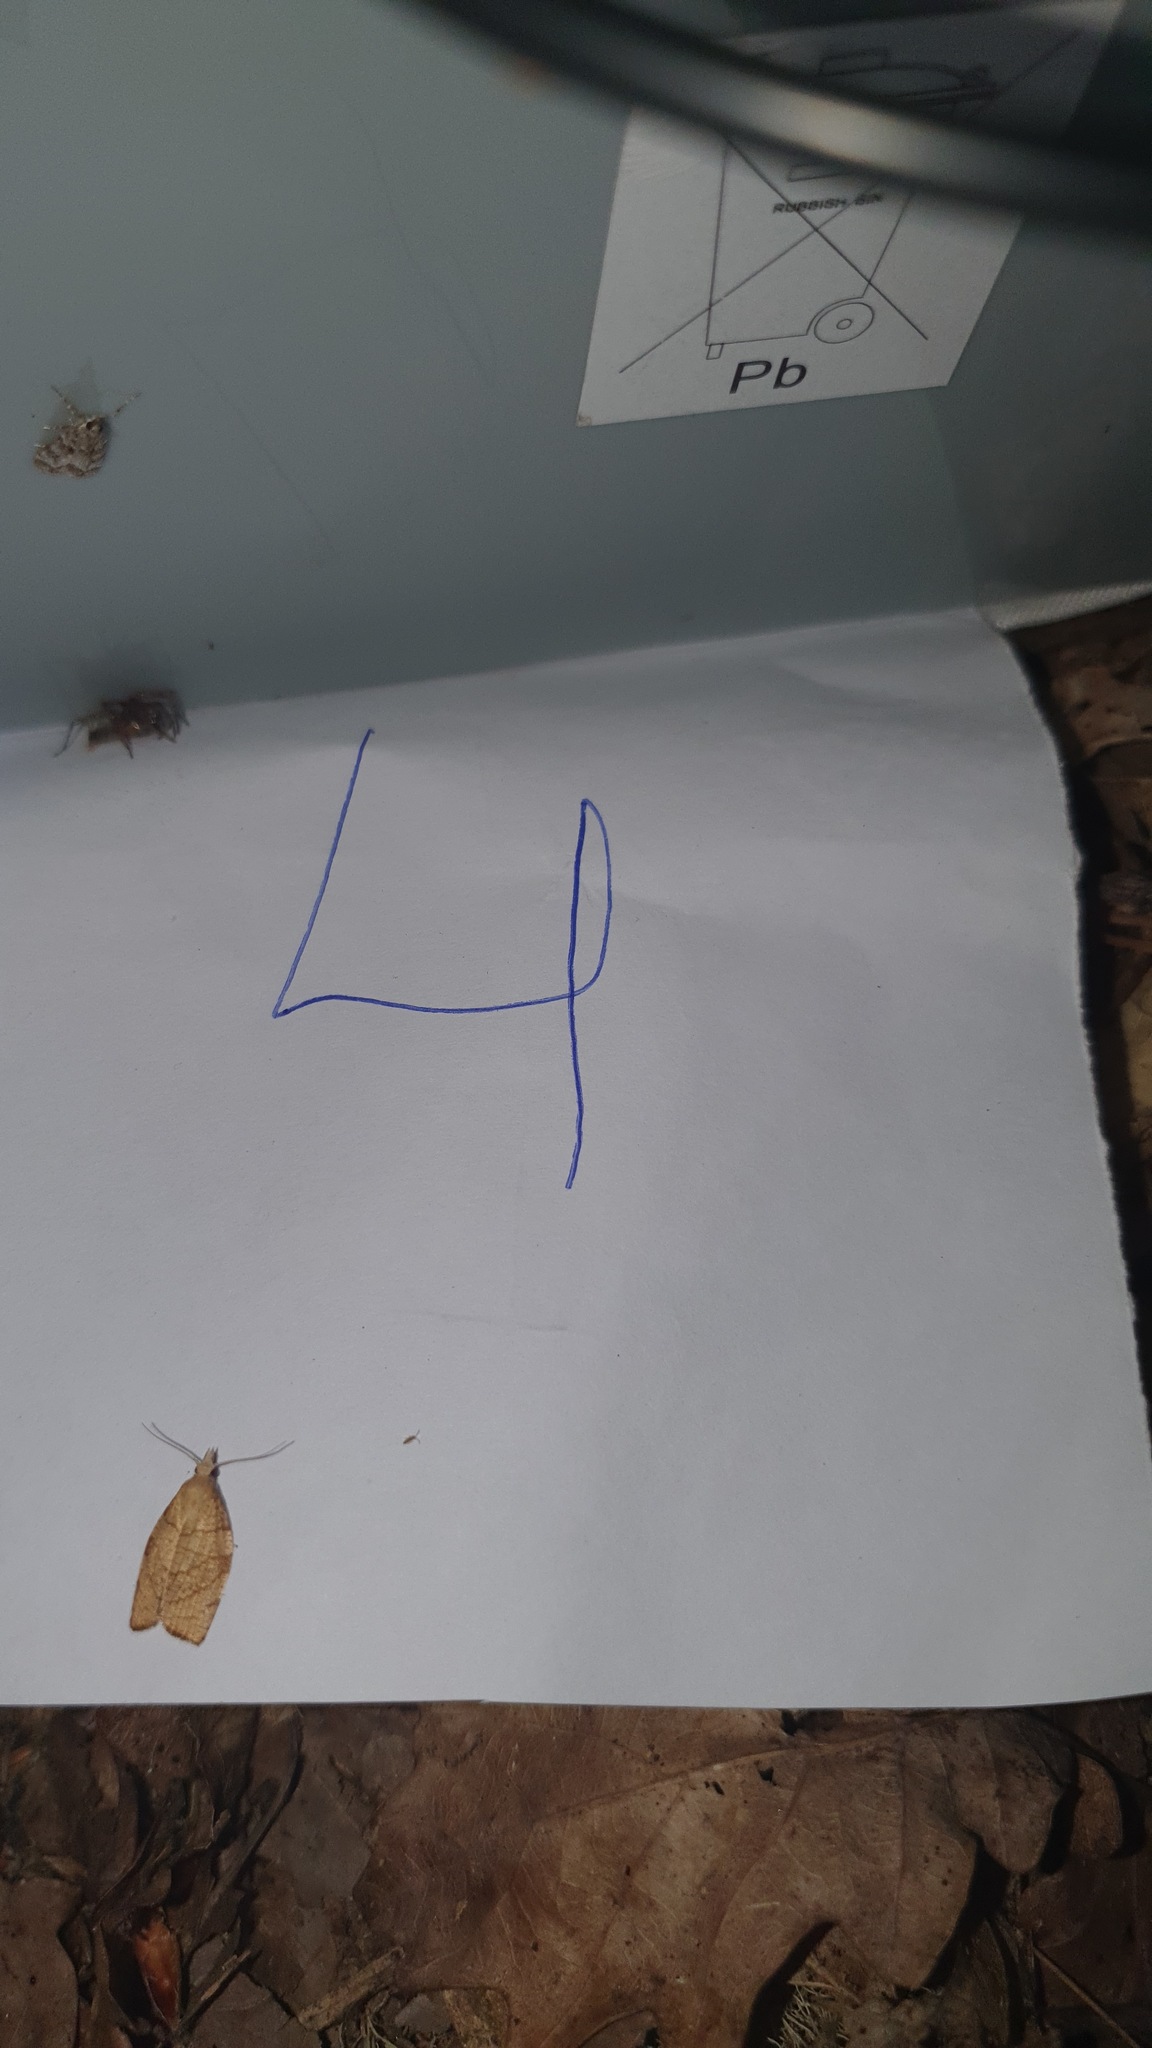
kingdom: Animalia
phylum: Arthropoda
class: Insecta
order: Lepidoptera
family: Tortricidae
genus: Pandemis
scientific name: Pandemis corylana
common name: Chequered fruit-tree tortrix
